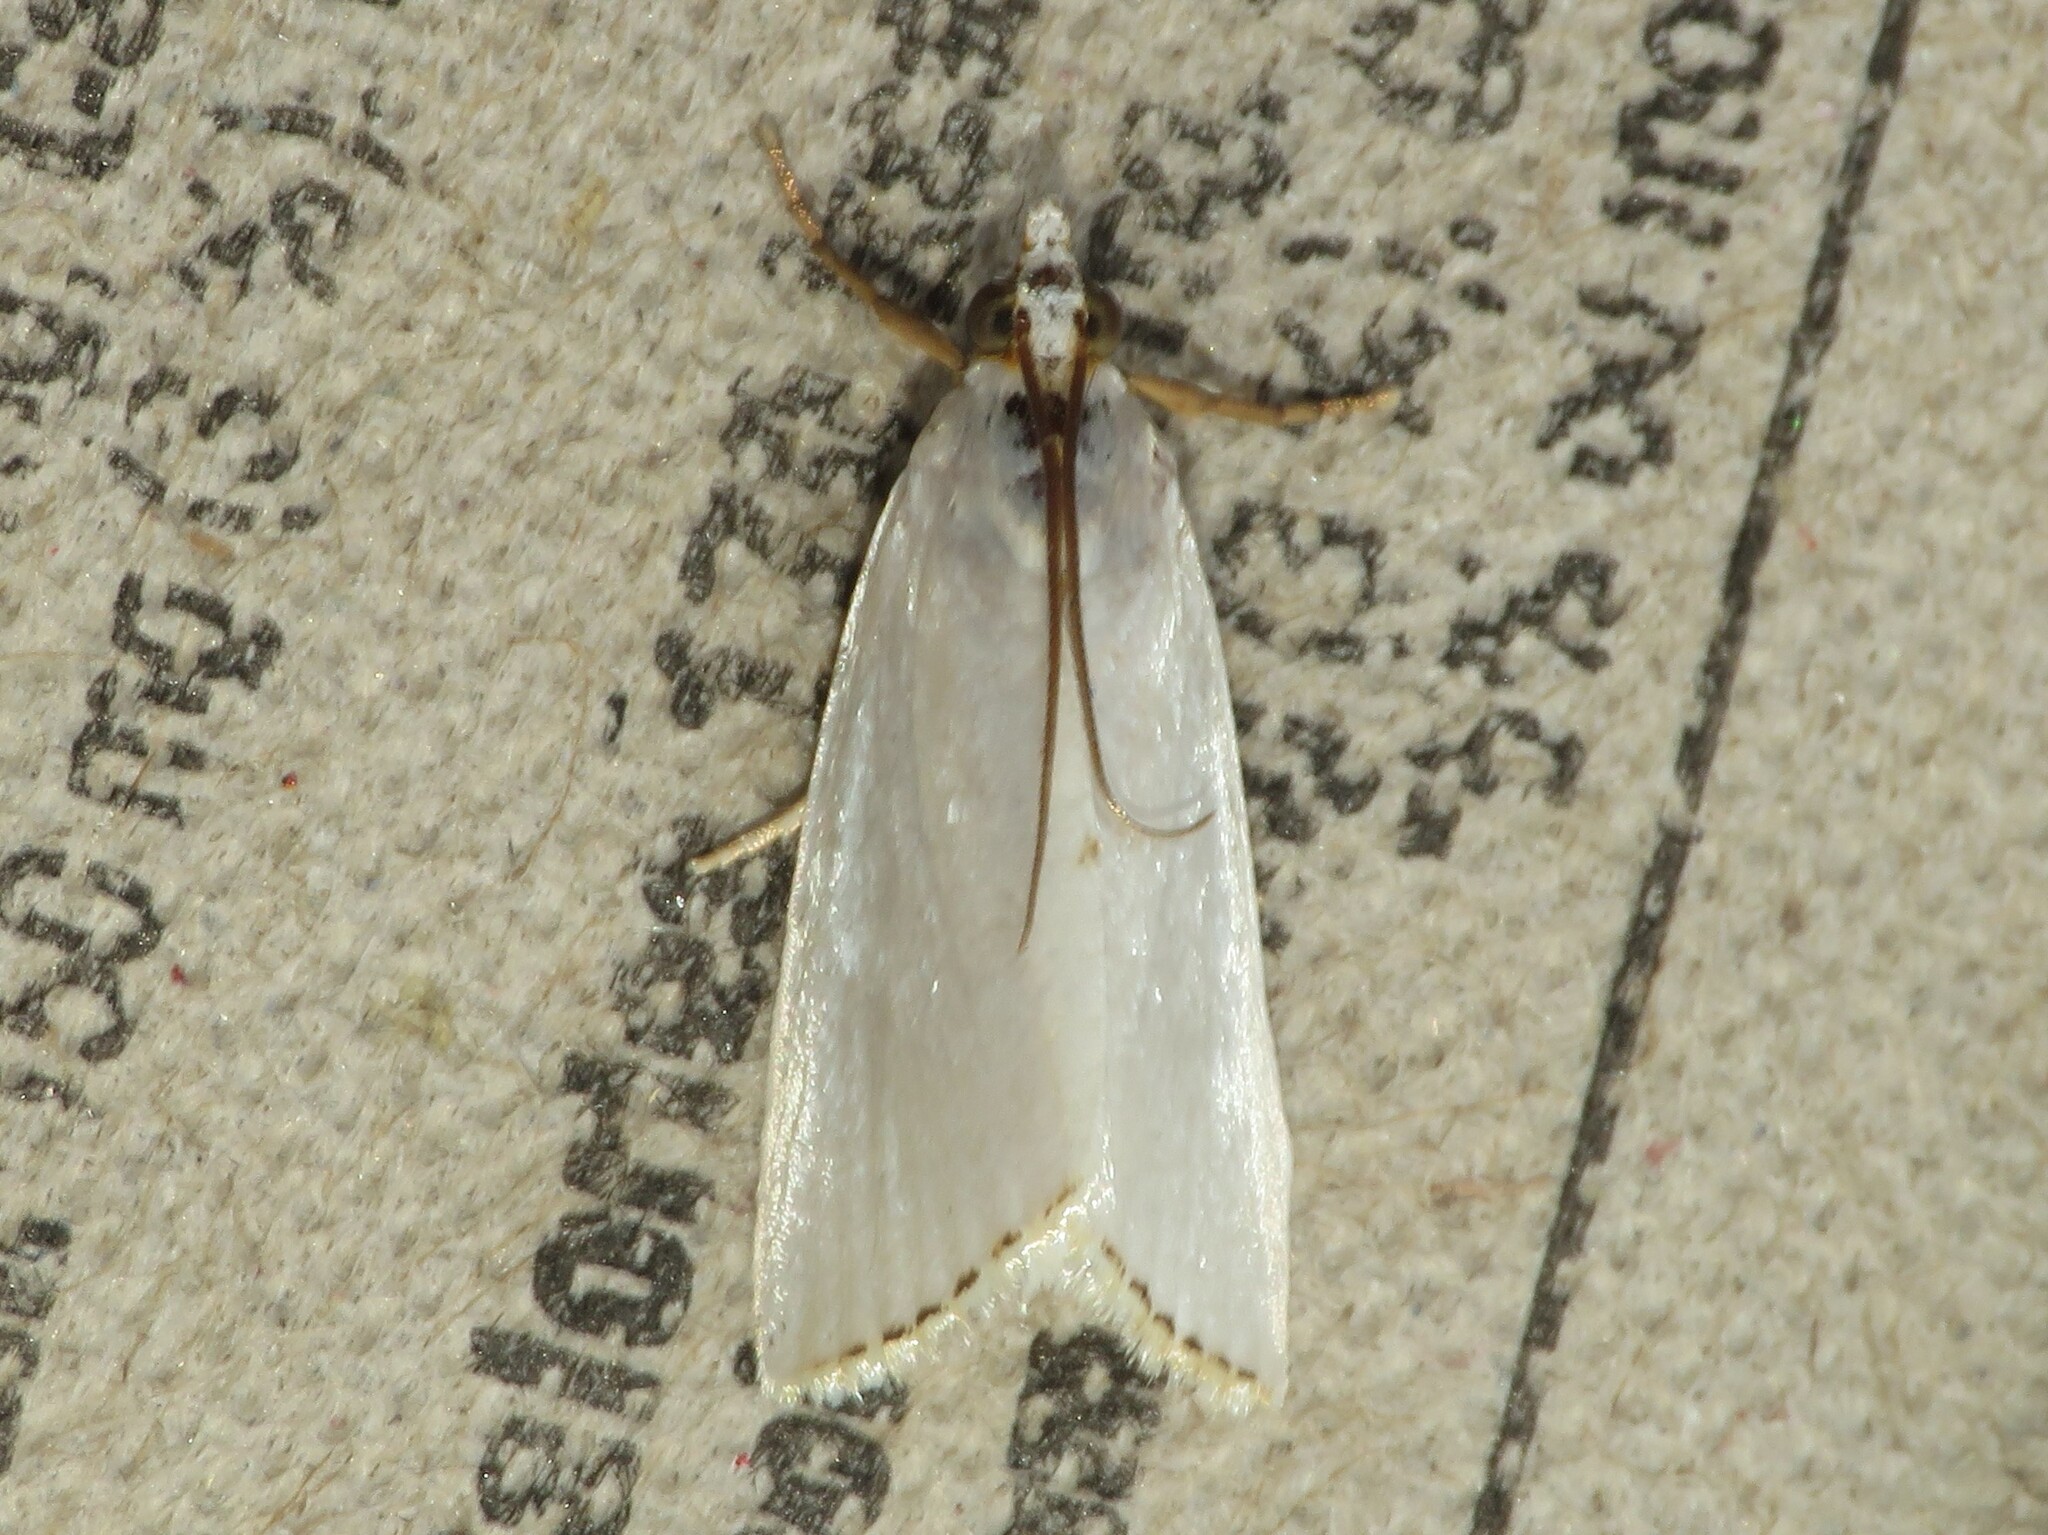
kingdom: Animalia
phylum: Arthropoda
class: Insecta
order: Lepidoptera
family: Crambidae
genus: Argyria
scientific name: Argyria nivalis
